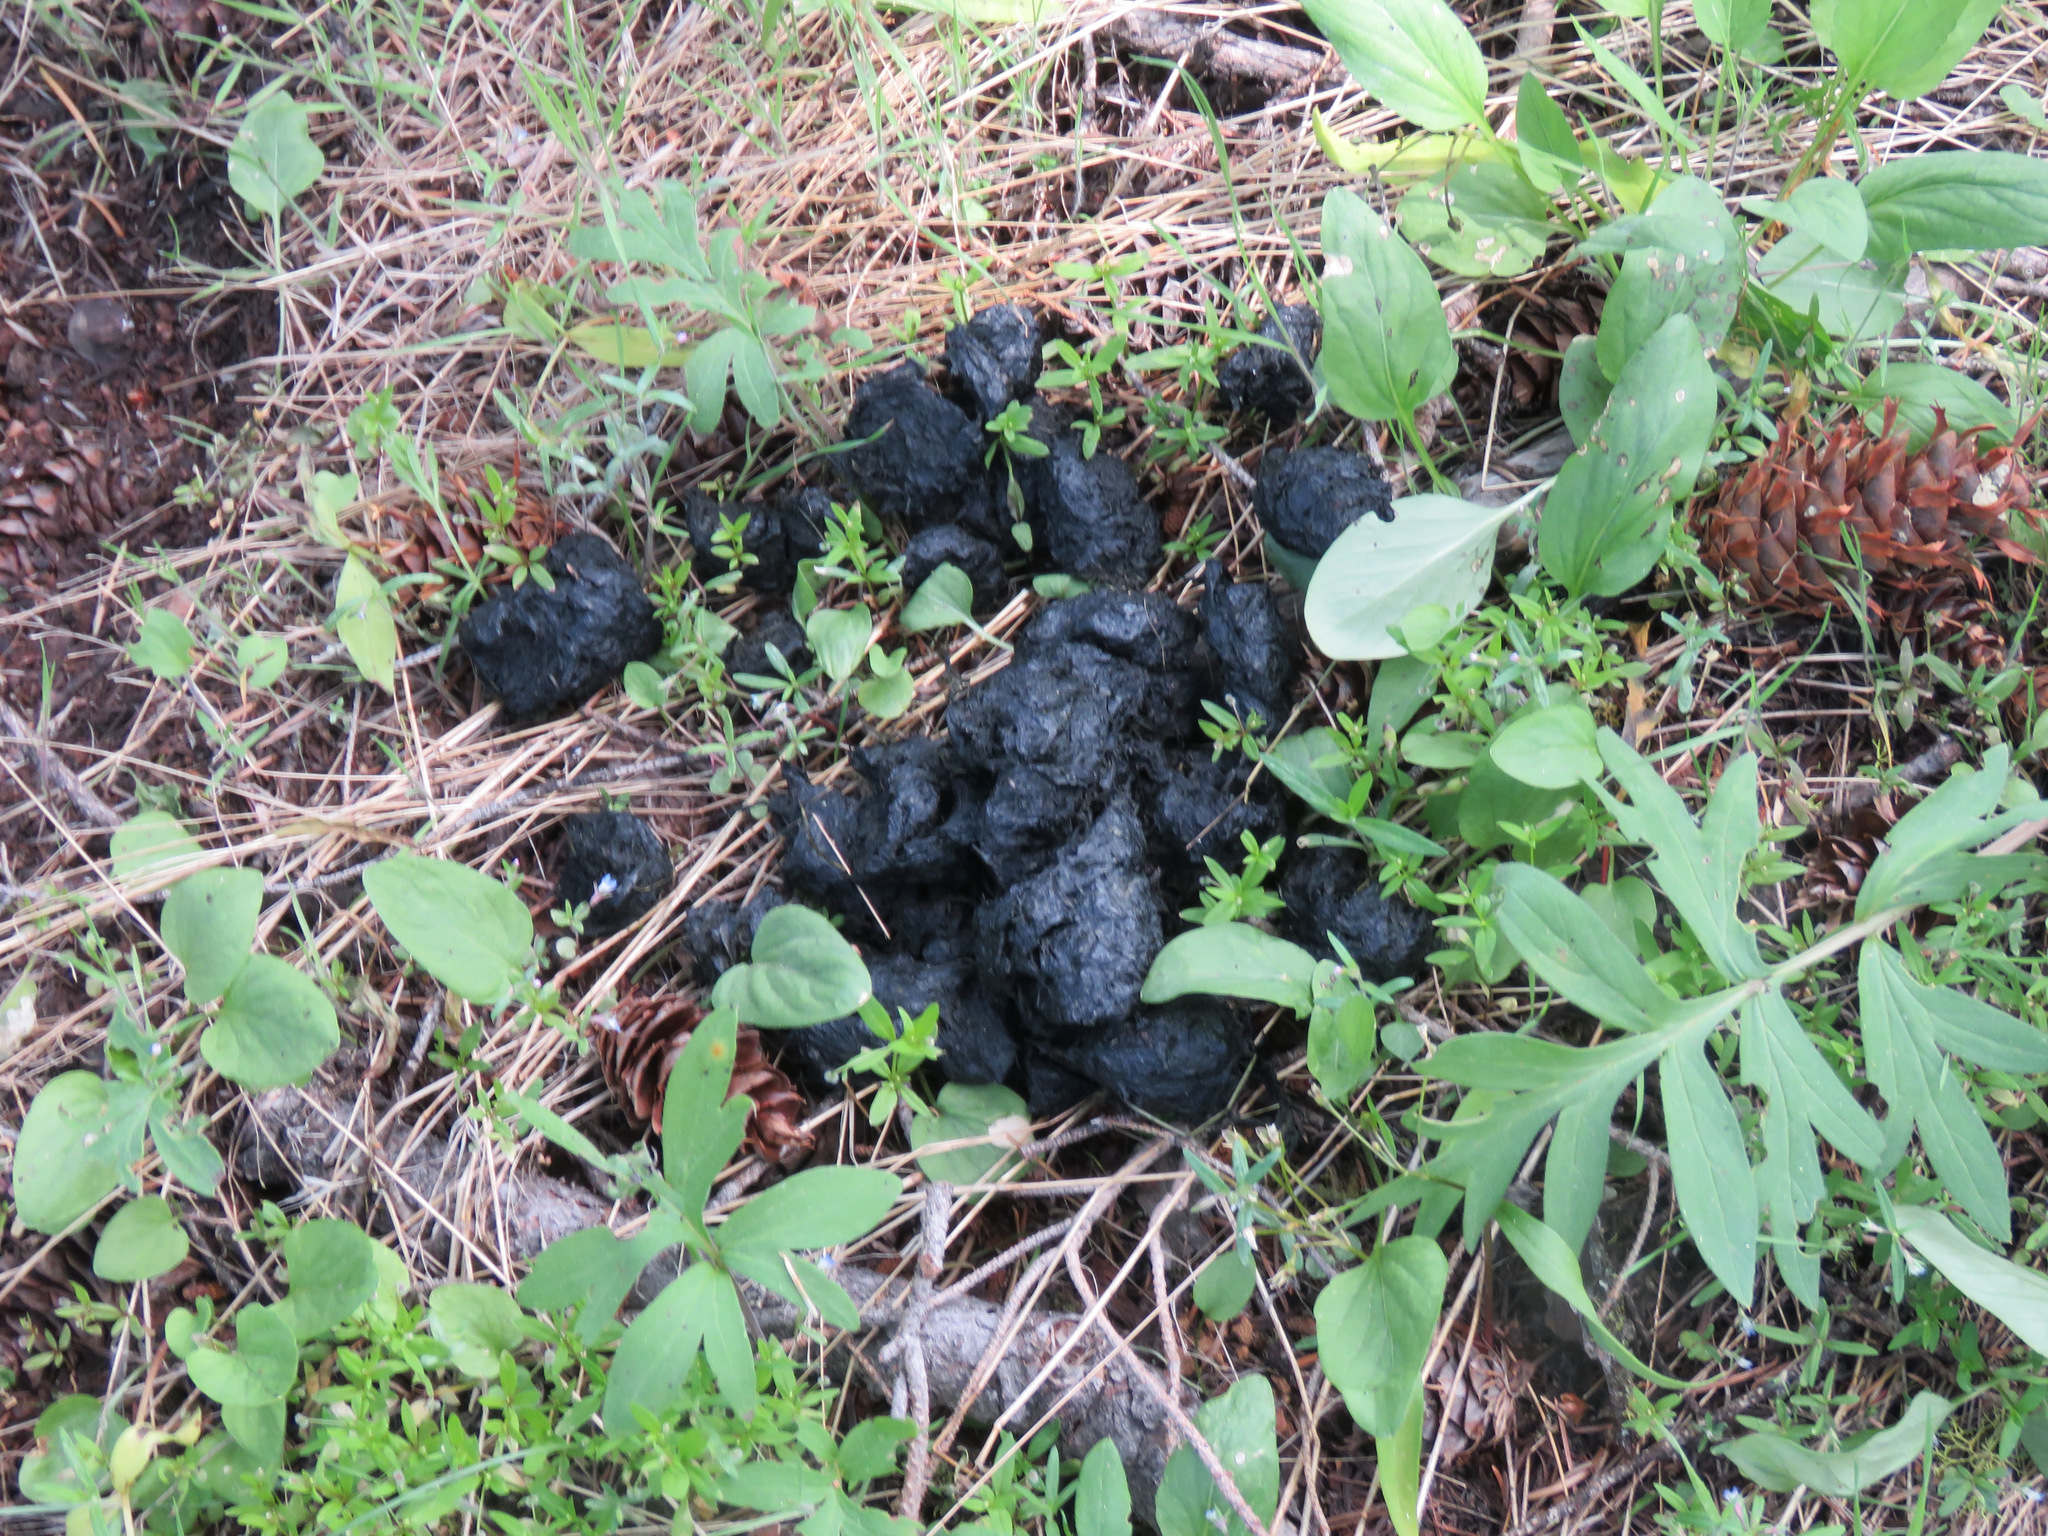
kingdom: Animalia
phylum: Chordata
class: Mammalia
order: Carnivora
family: Ursidae
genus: Ursus
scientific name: Ursus americanus
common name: American black bear
